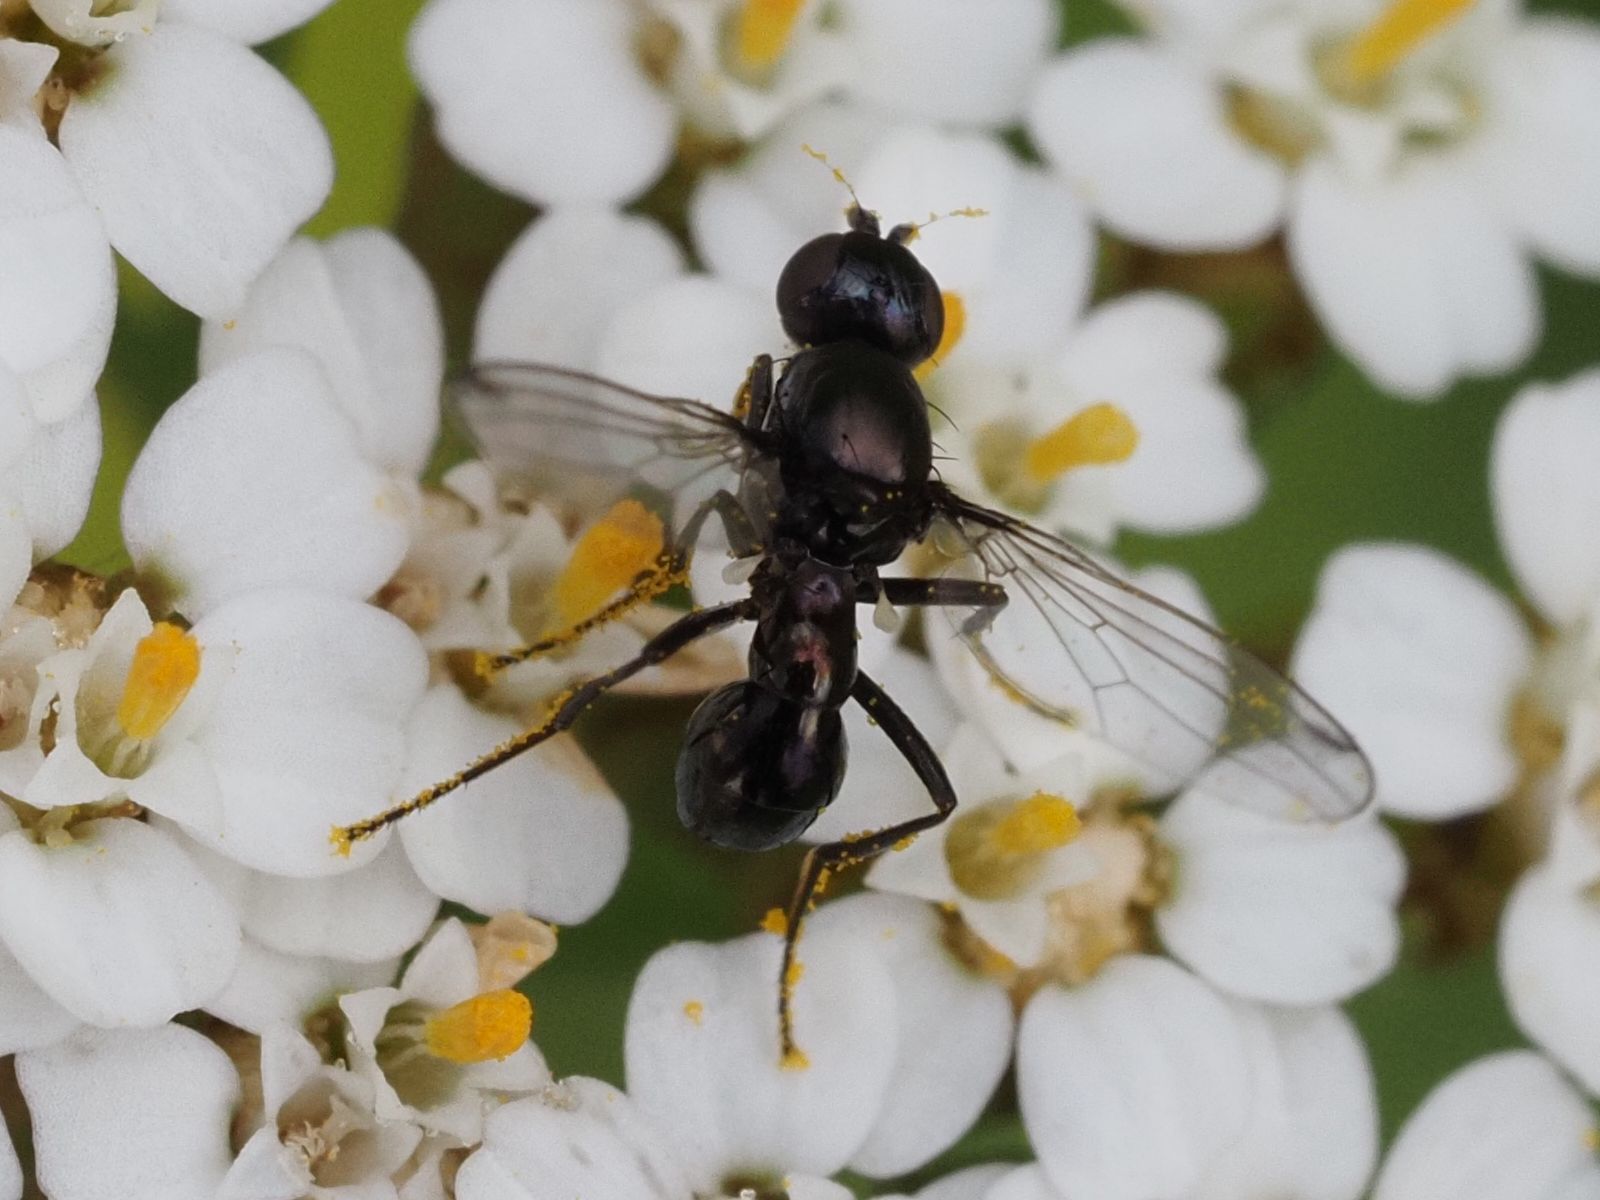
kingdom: Animalia
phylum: Arthropoda
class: Insecta
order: Diptera
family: Sepsidae
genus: Nemopoda
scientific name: Nemopoda nitidula
